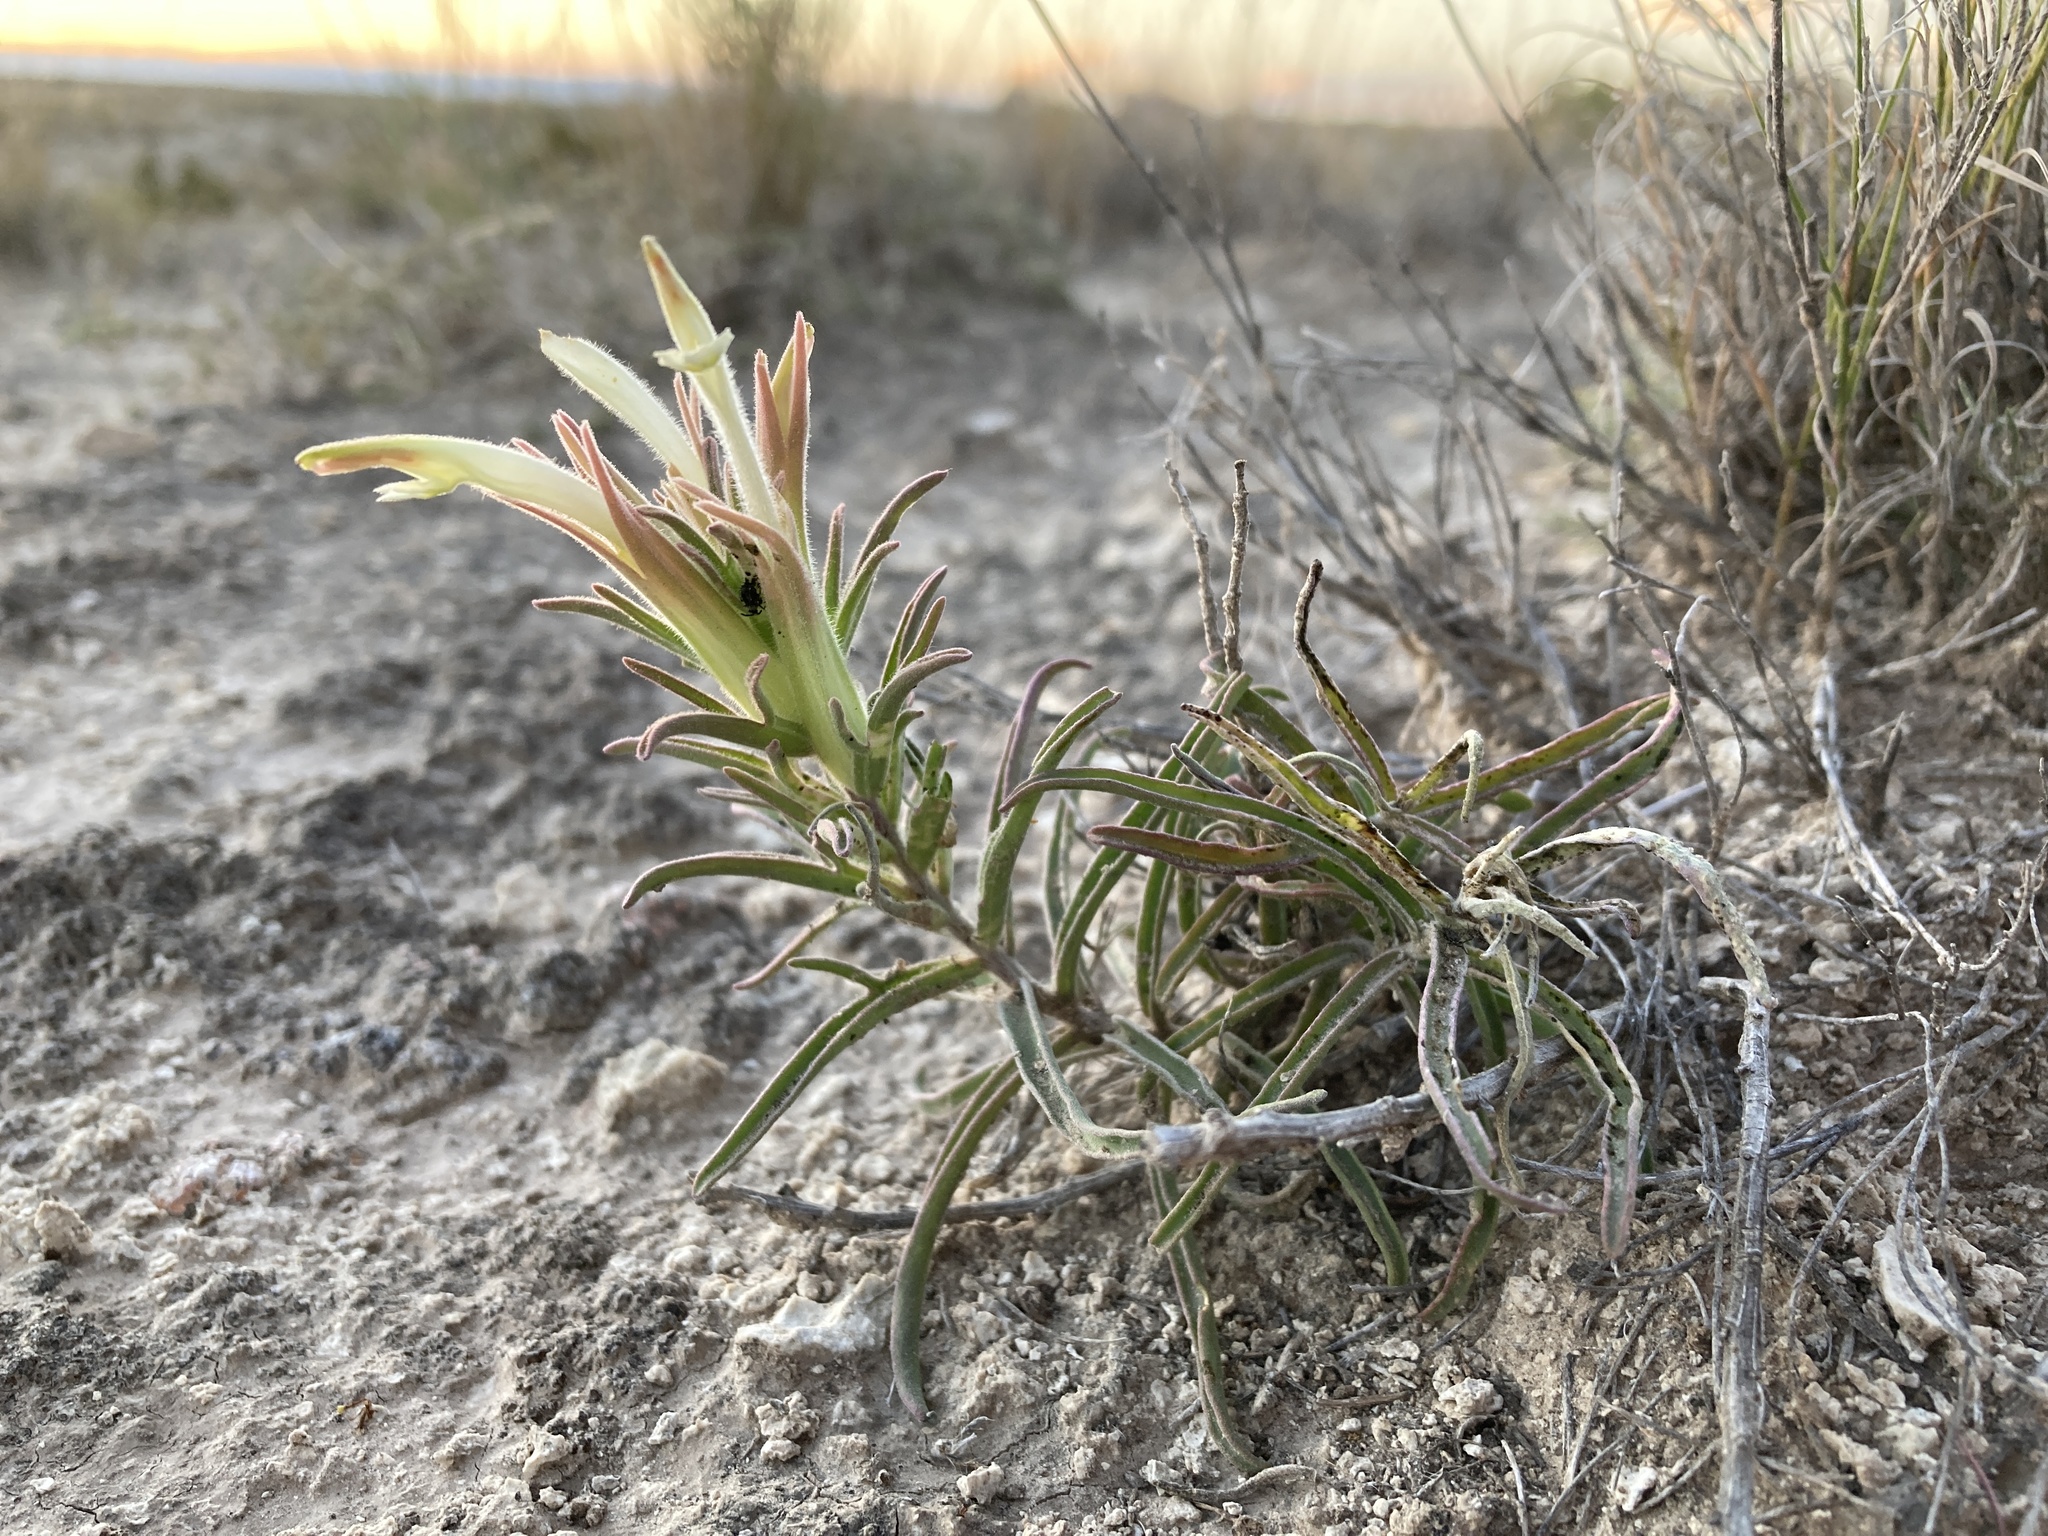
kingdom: Plantae
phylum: Tracheophyta
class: Magnoliopsida
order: Lamiales
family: Orobanchaceae
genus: Castilleja
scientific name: Castilleja sessiliflora
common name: Downy paintbrush
